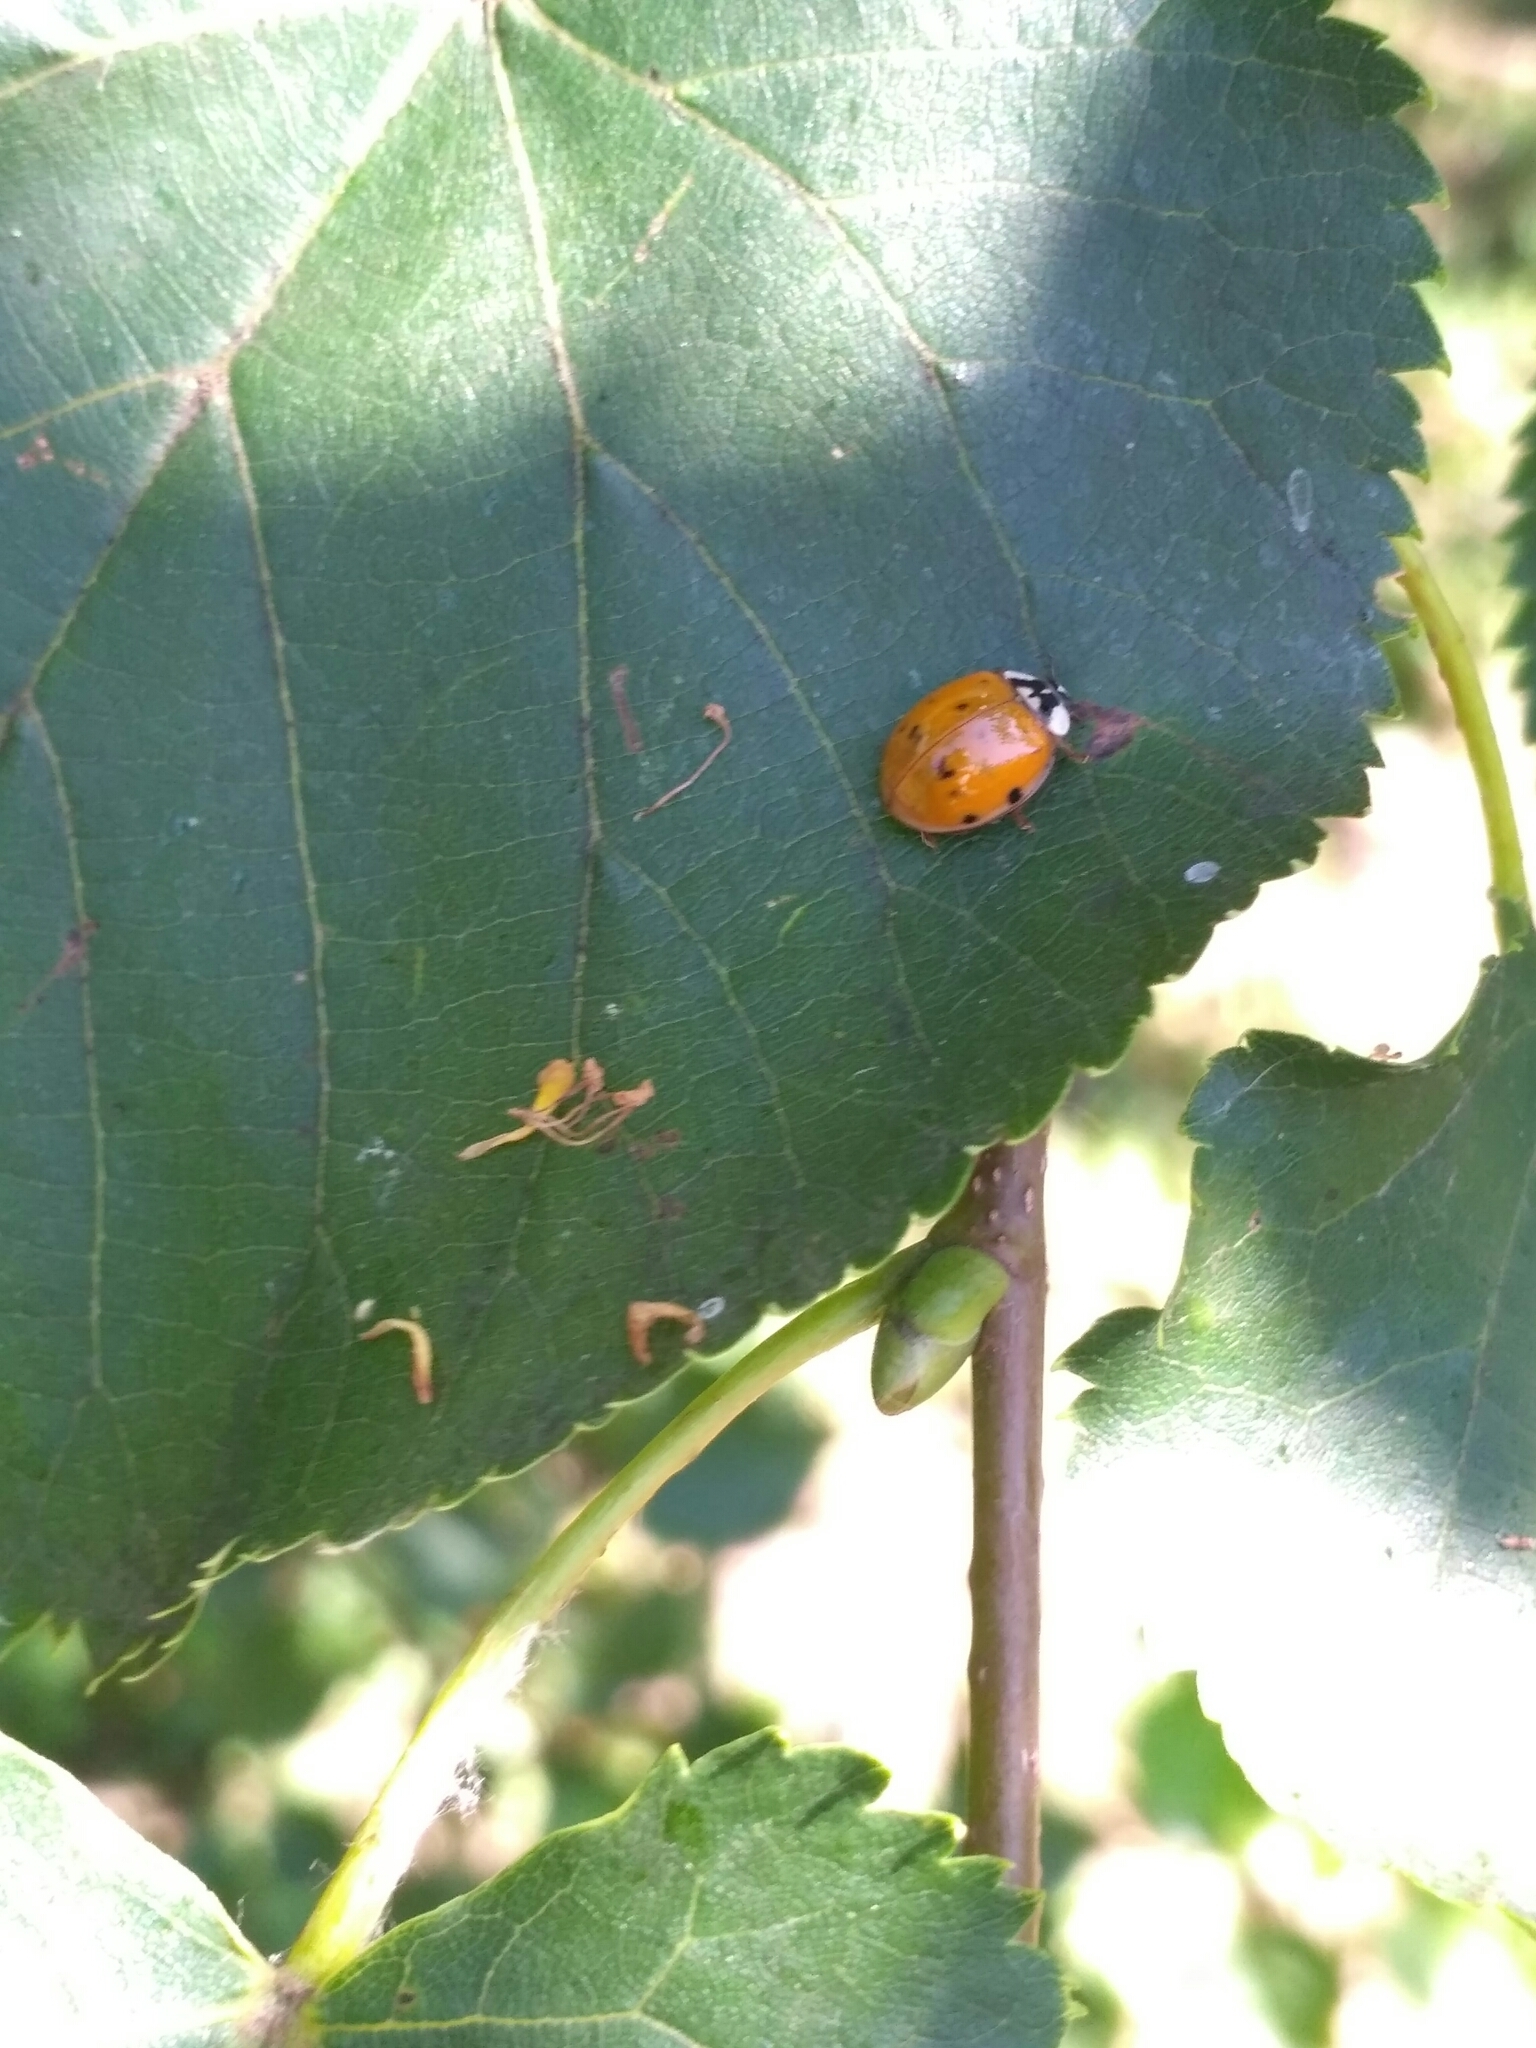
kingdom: Animalia
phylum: Arthropoda
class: Insecta
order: Coleoptera
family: Coccinellidae
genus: Harmonia
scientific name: Harmonia axyridis
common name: Harlequin ladybird
